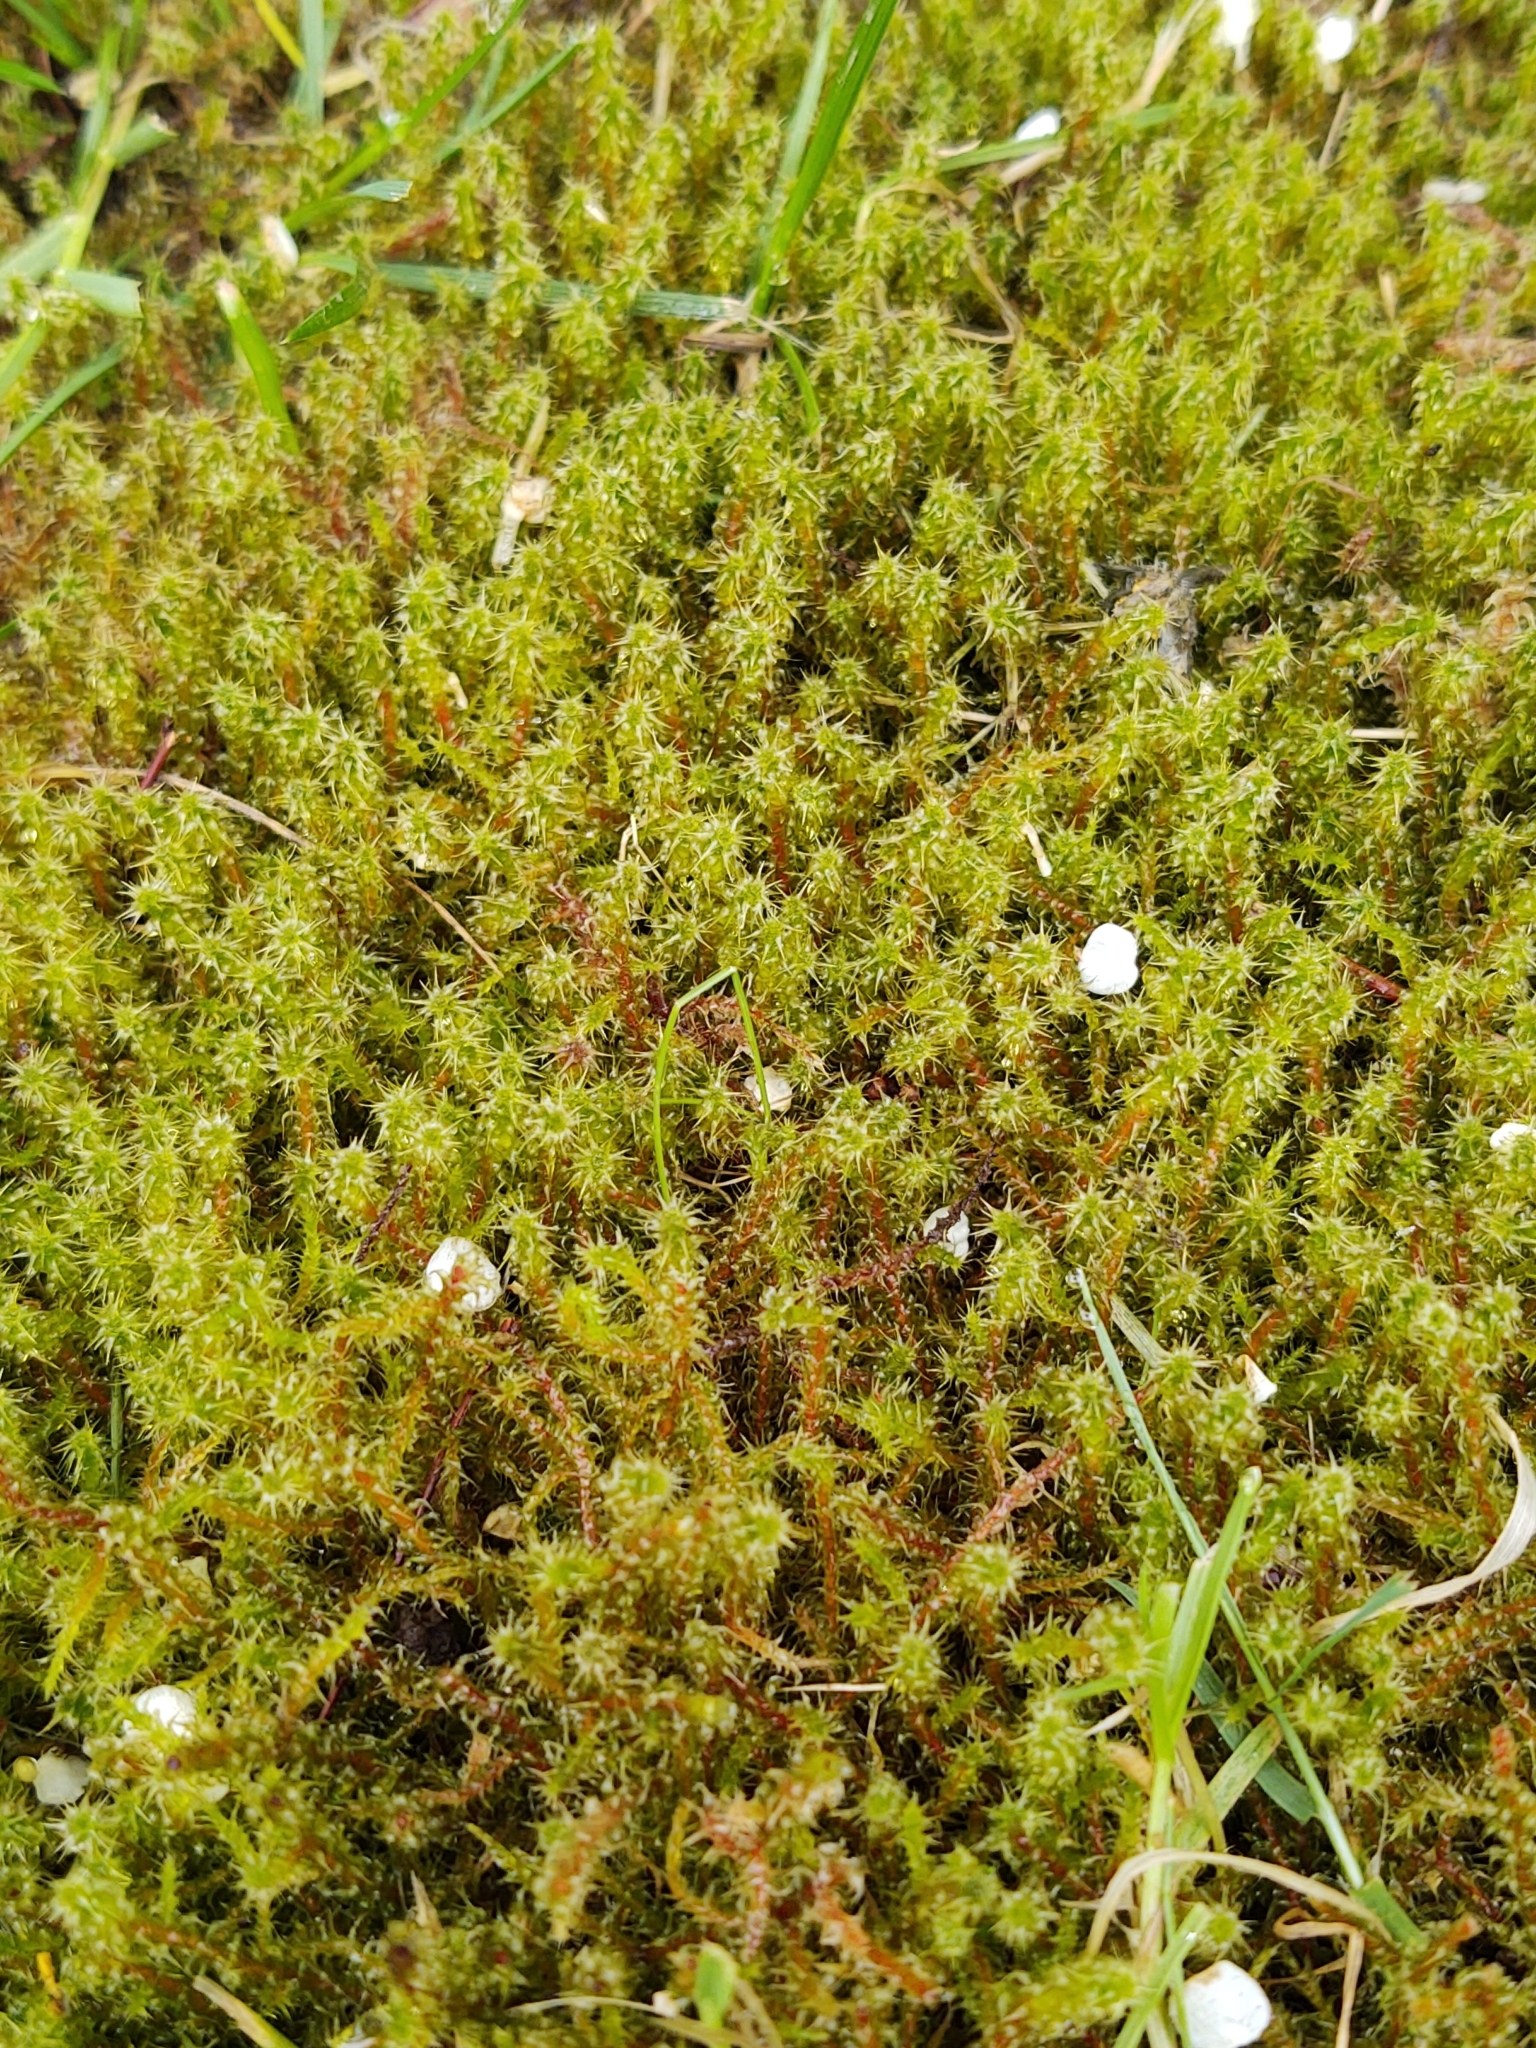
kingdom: Plantae
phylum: Bryophyta
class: Bryopsida
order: Hypnales
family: Hylocomiaceae
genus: Rhytidiadelphus
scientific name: Rhytidiadelphus squarrosus
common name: Springy turf-moss
